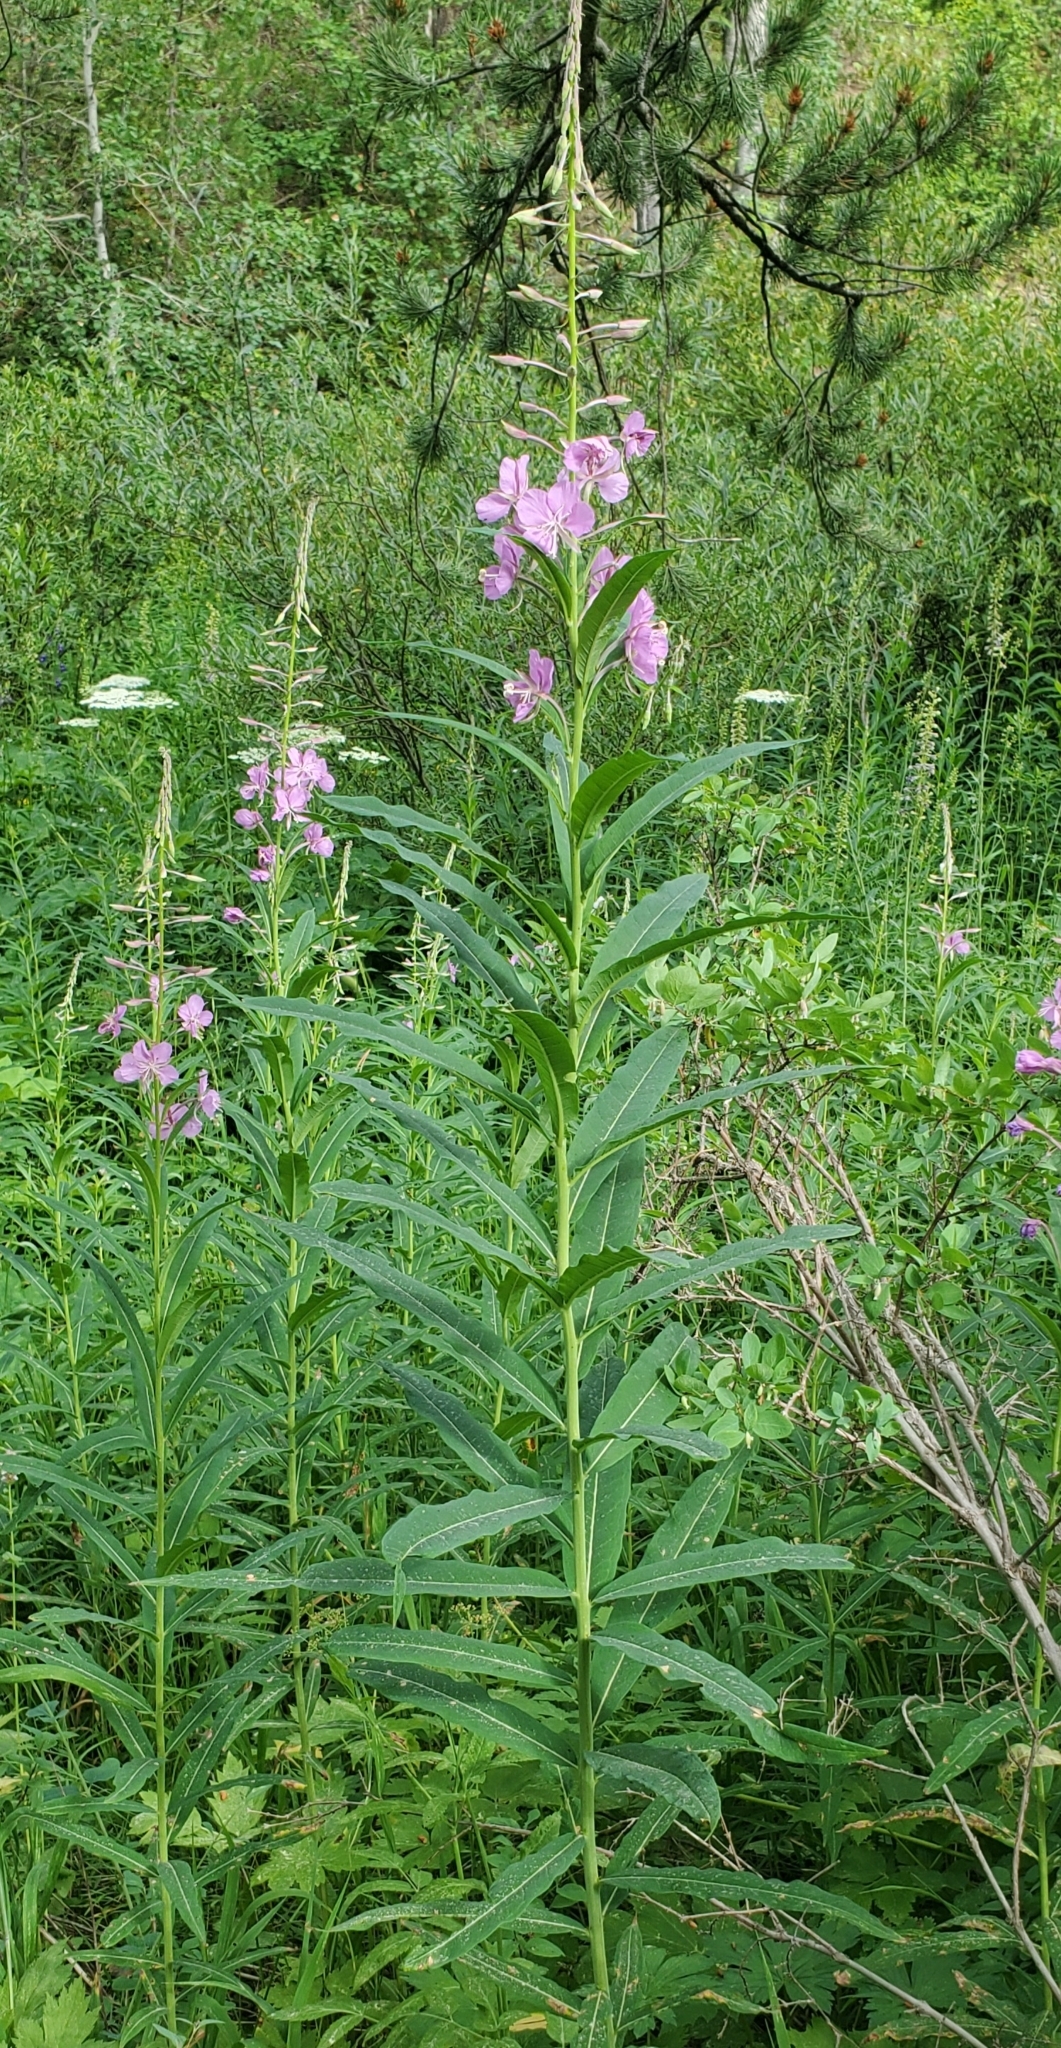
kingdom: Plantae
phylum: Tracheophyta
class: Magnoliopsida
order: Myrtales
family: Onagraceae
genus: Chamaenerion
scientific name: Chamaenerion angustifolium
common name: Fireweed
